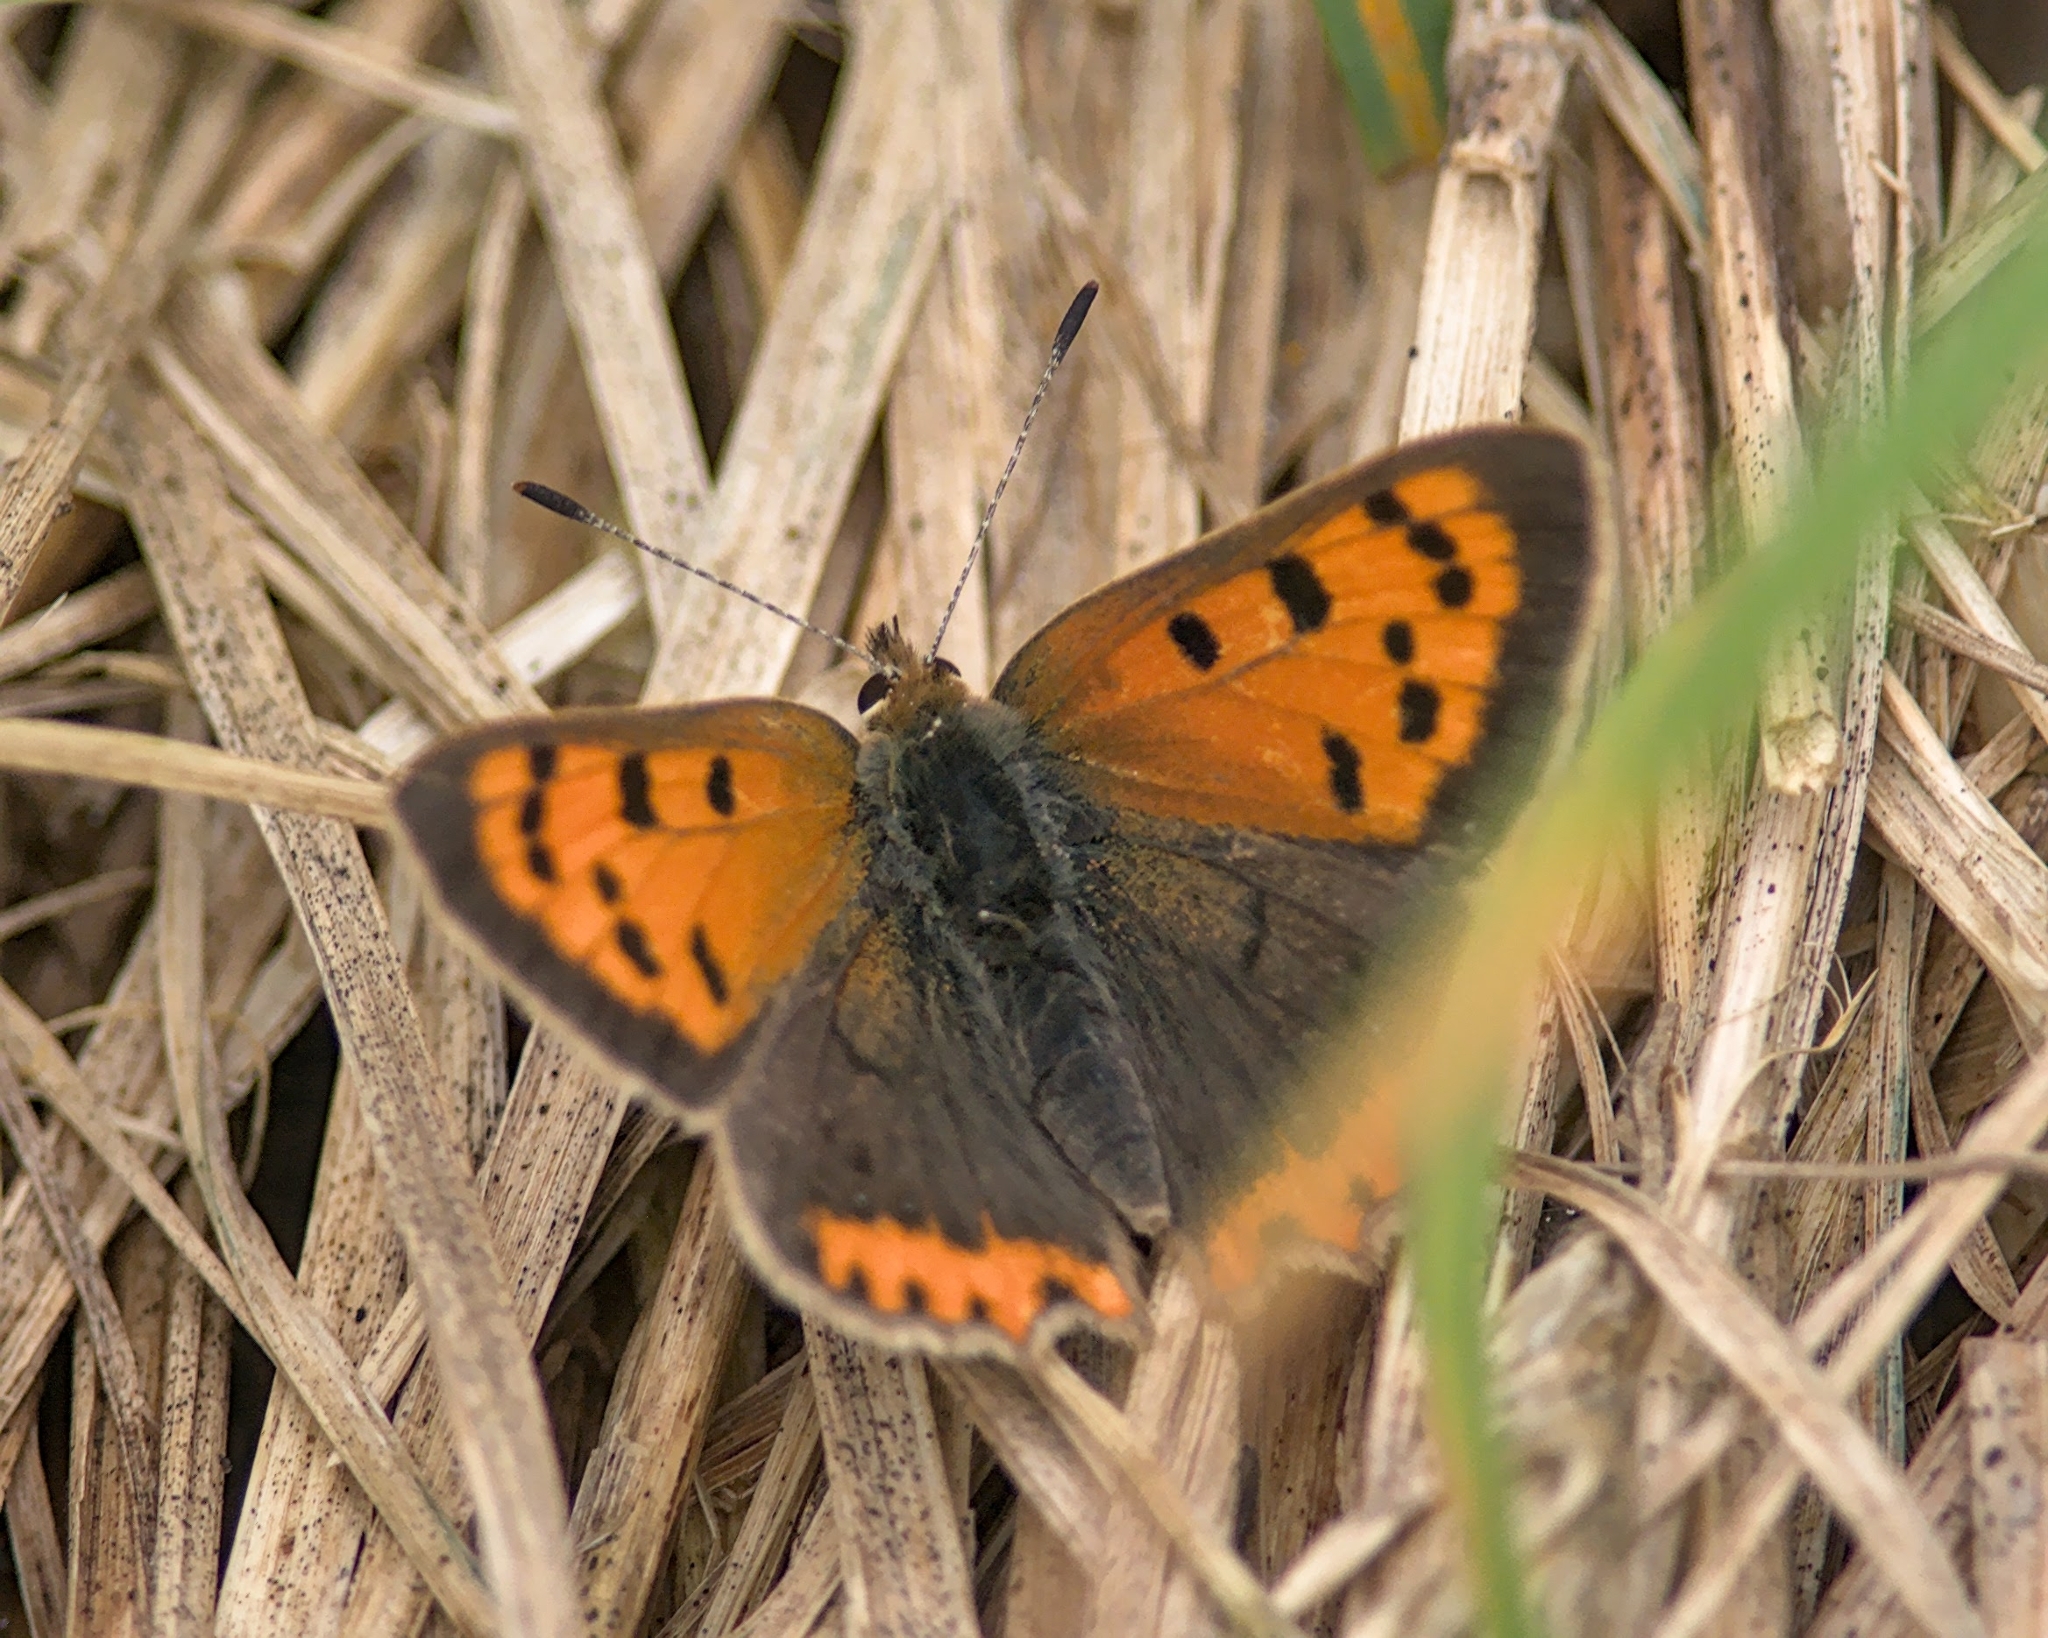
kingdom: Animalia
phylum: Arthropoda
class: Insecta
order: Lepidoptera
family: Lycaenidae
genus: Lycaena
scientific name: Lycaena phlaeas
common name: Small copper
